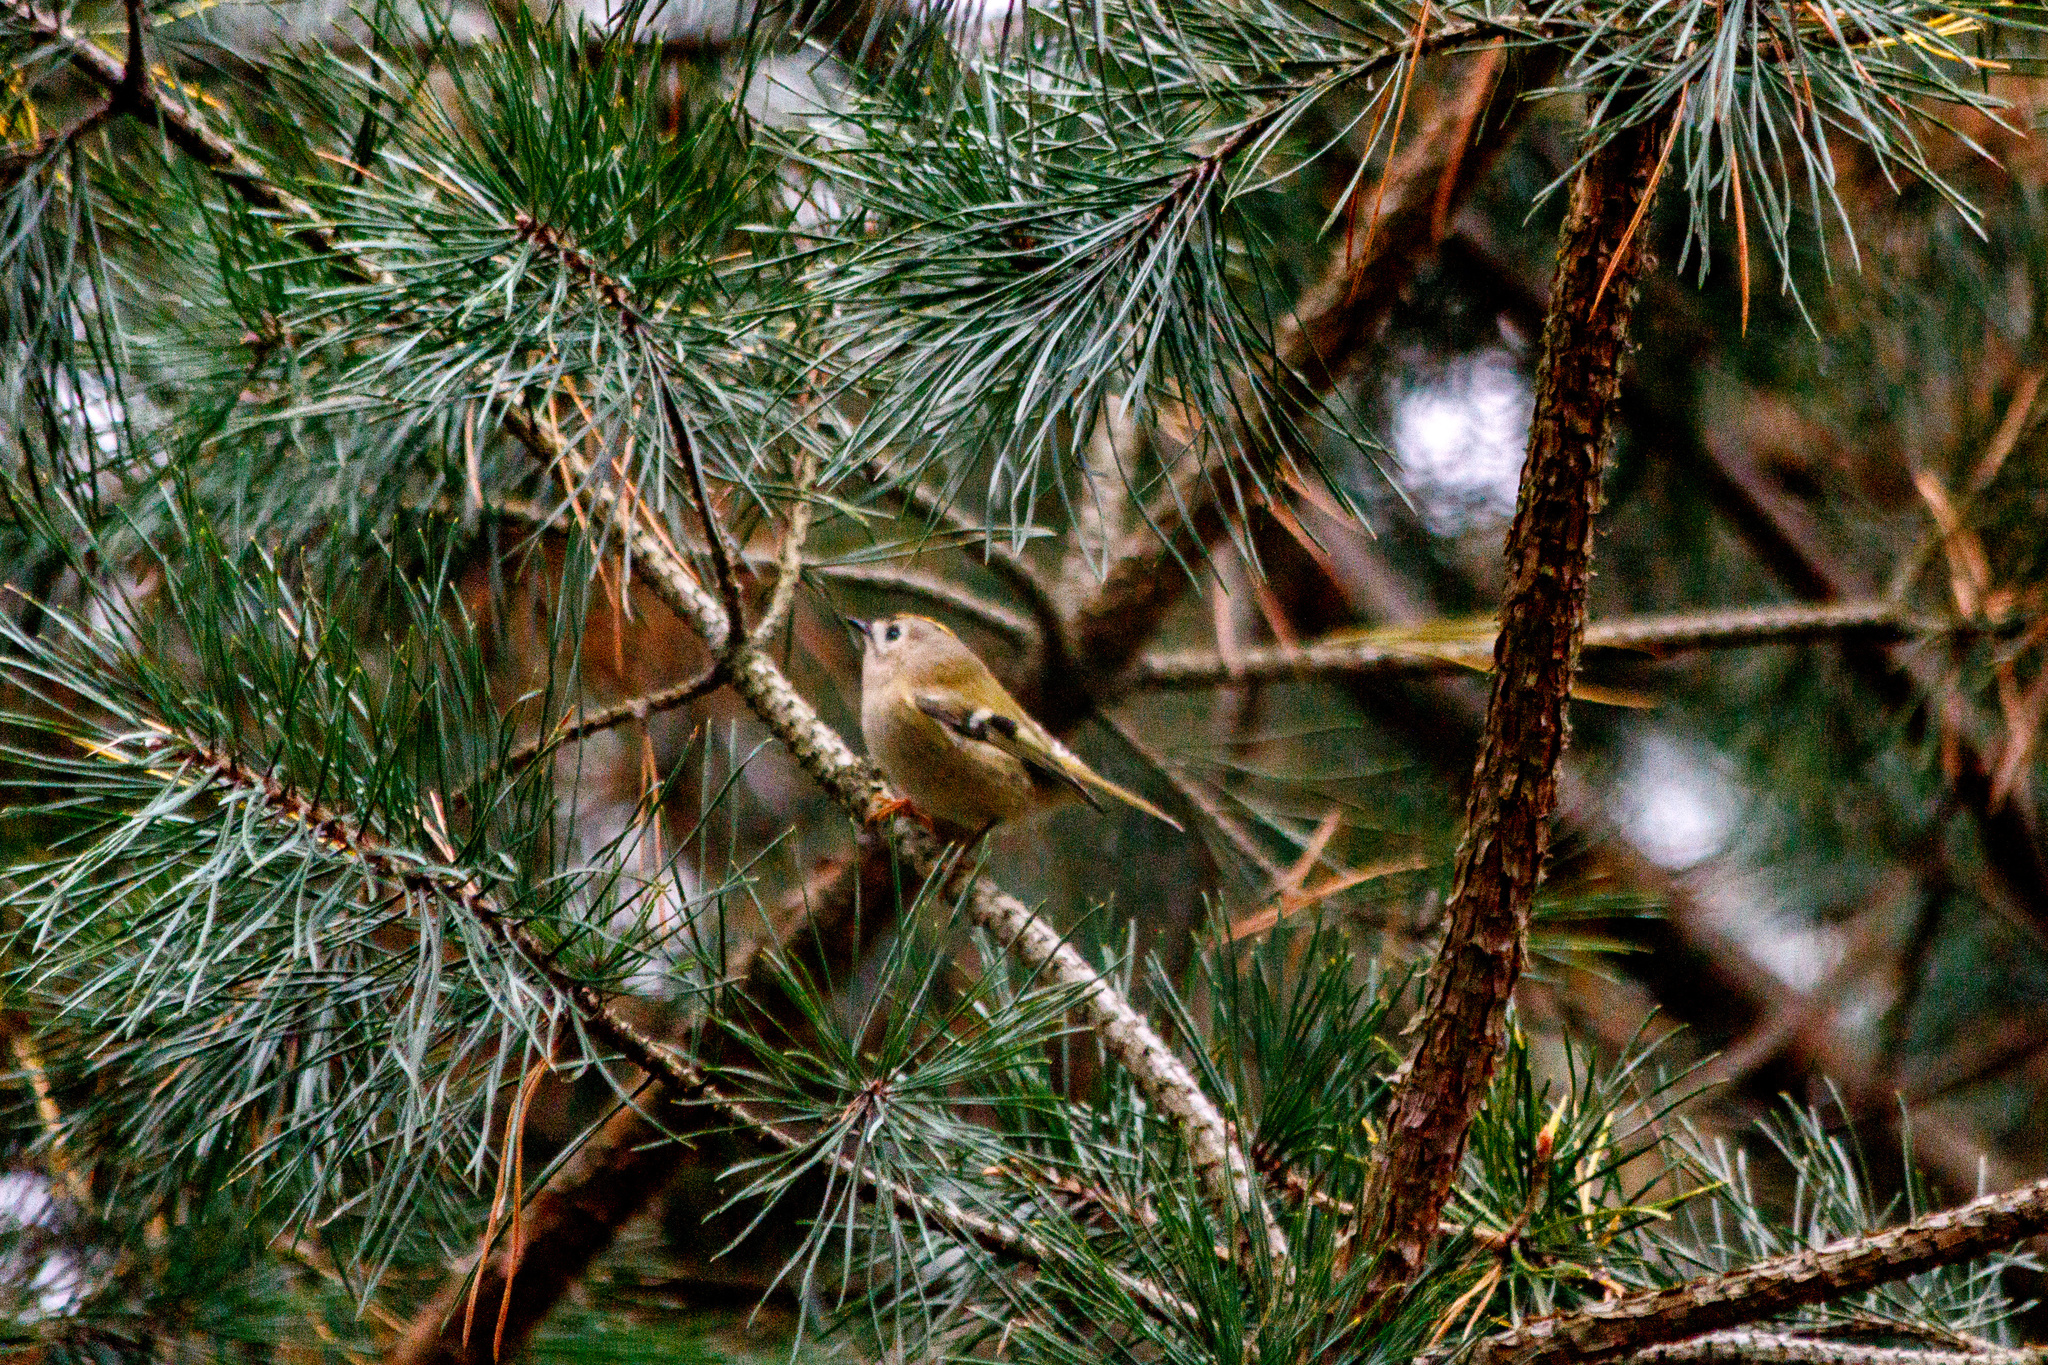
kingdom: Animalia
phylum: Chordata
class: Aves
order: Passeriformes
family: Regulidae
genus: Regulus
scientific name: Regulus regulus
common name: Goldcrest
